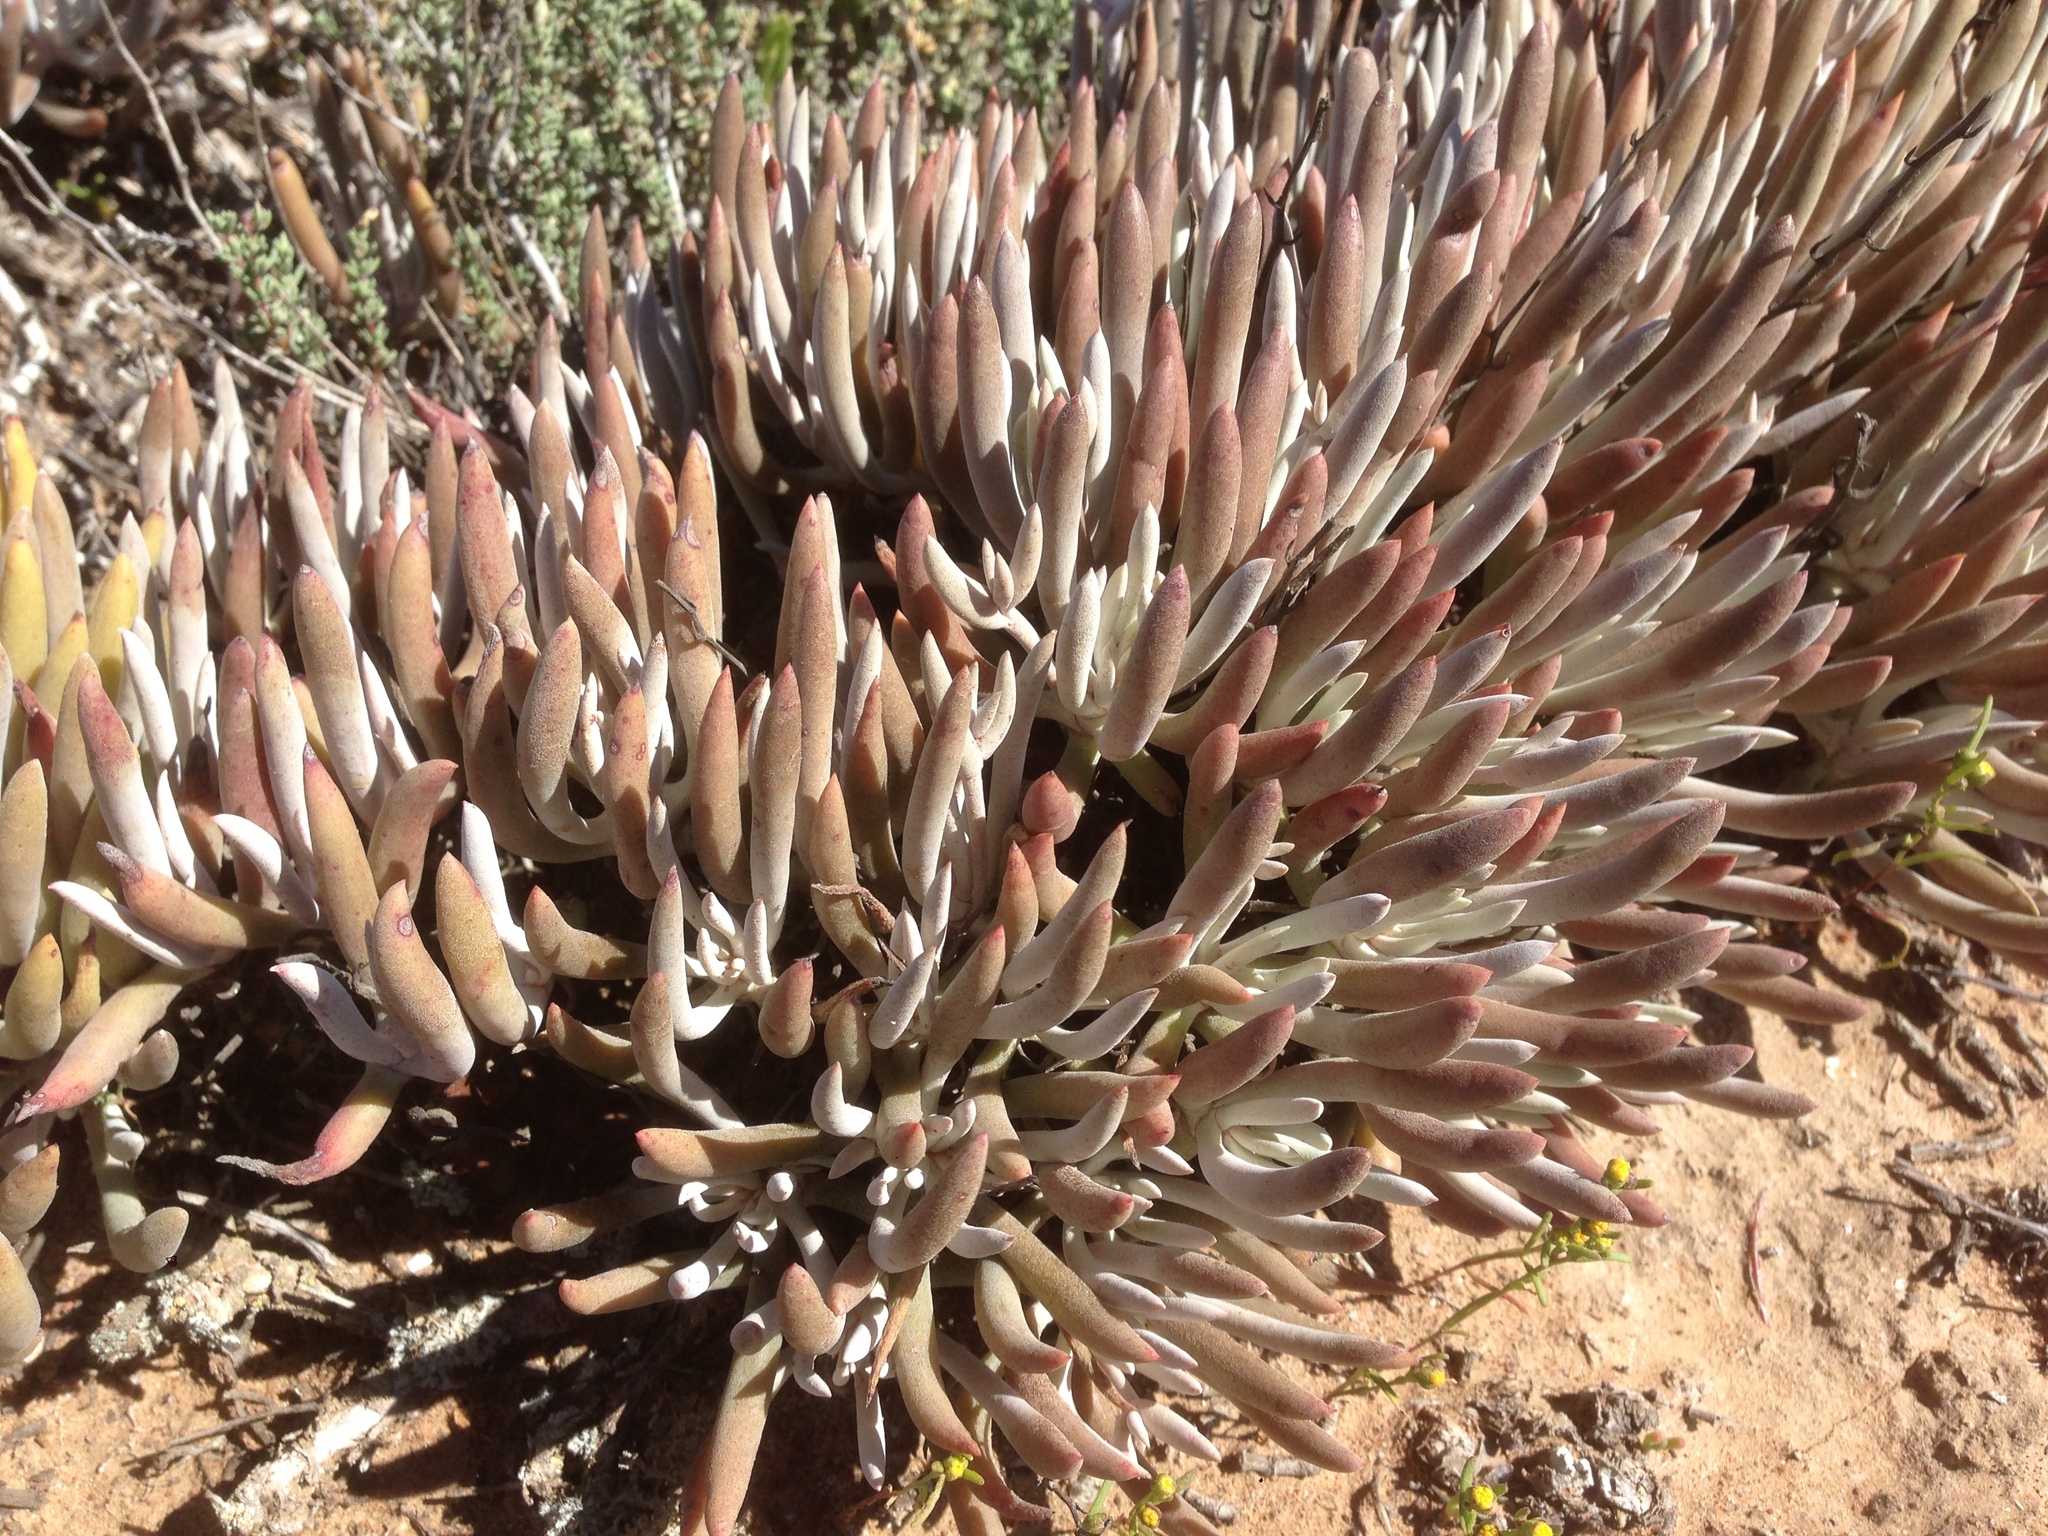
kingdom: Plantae
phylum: Tracheophyta
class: Magnoliopsida
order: Saxifragales
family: Crassulaceae
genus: Dudleya
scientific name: Dudleya attenuata
